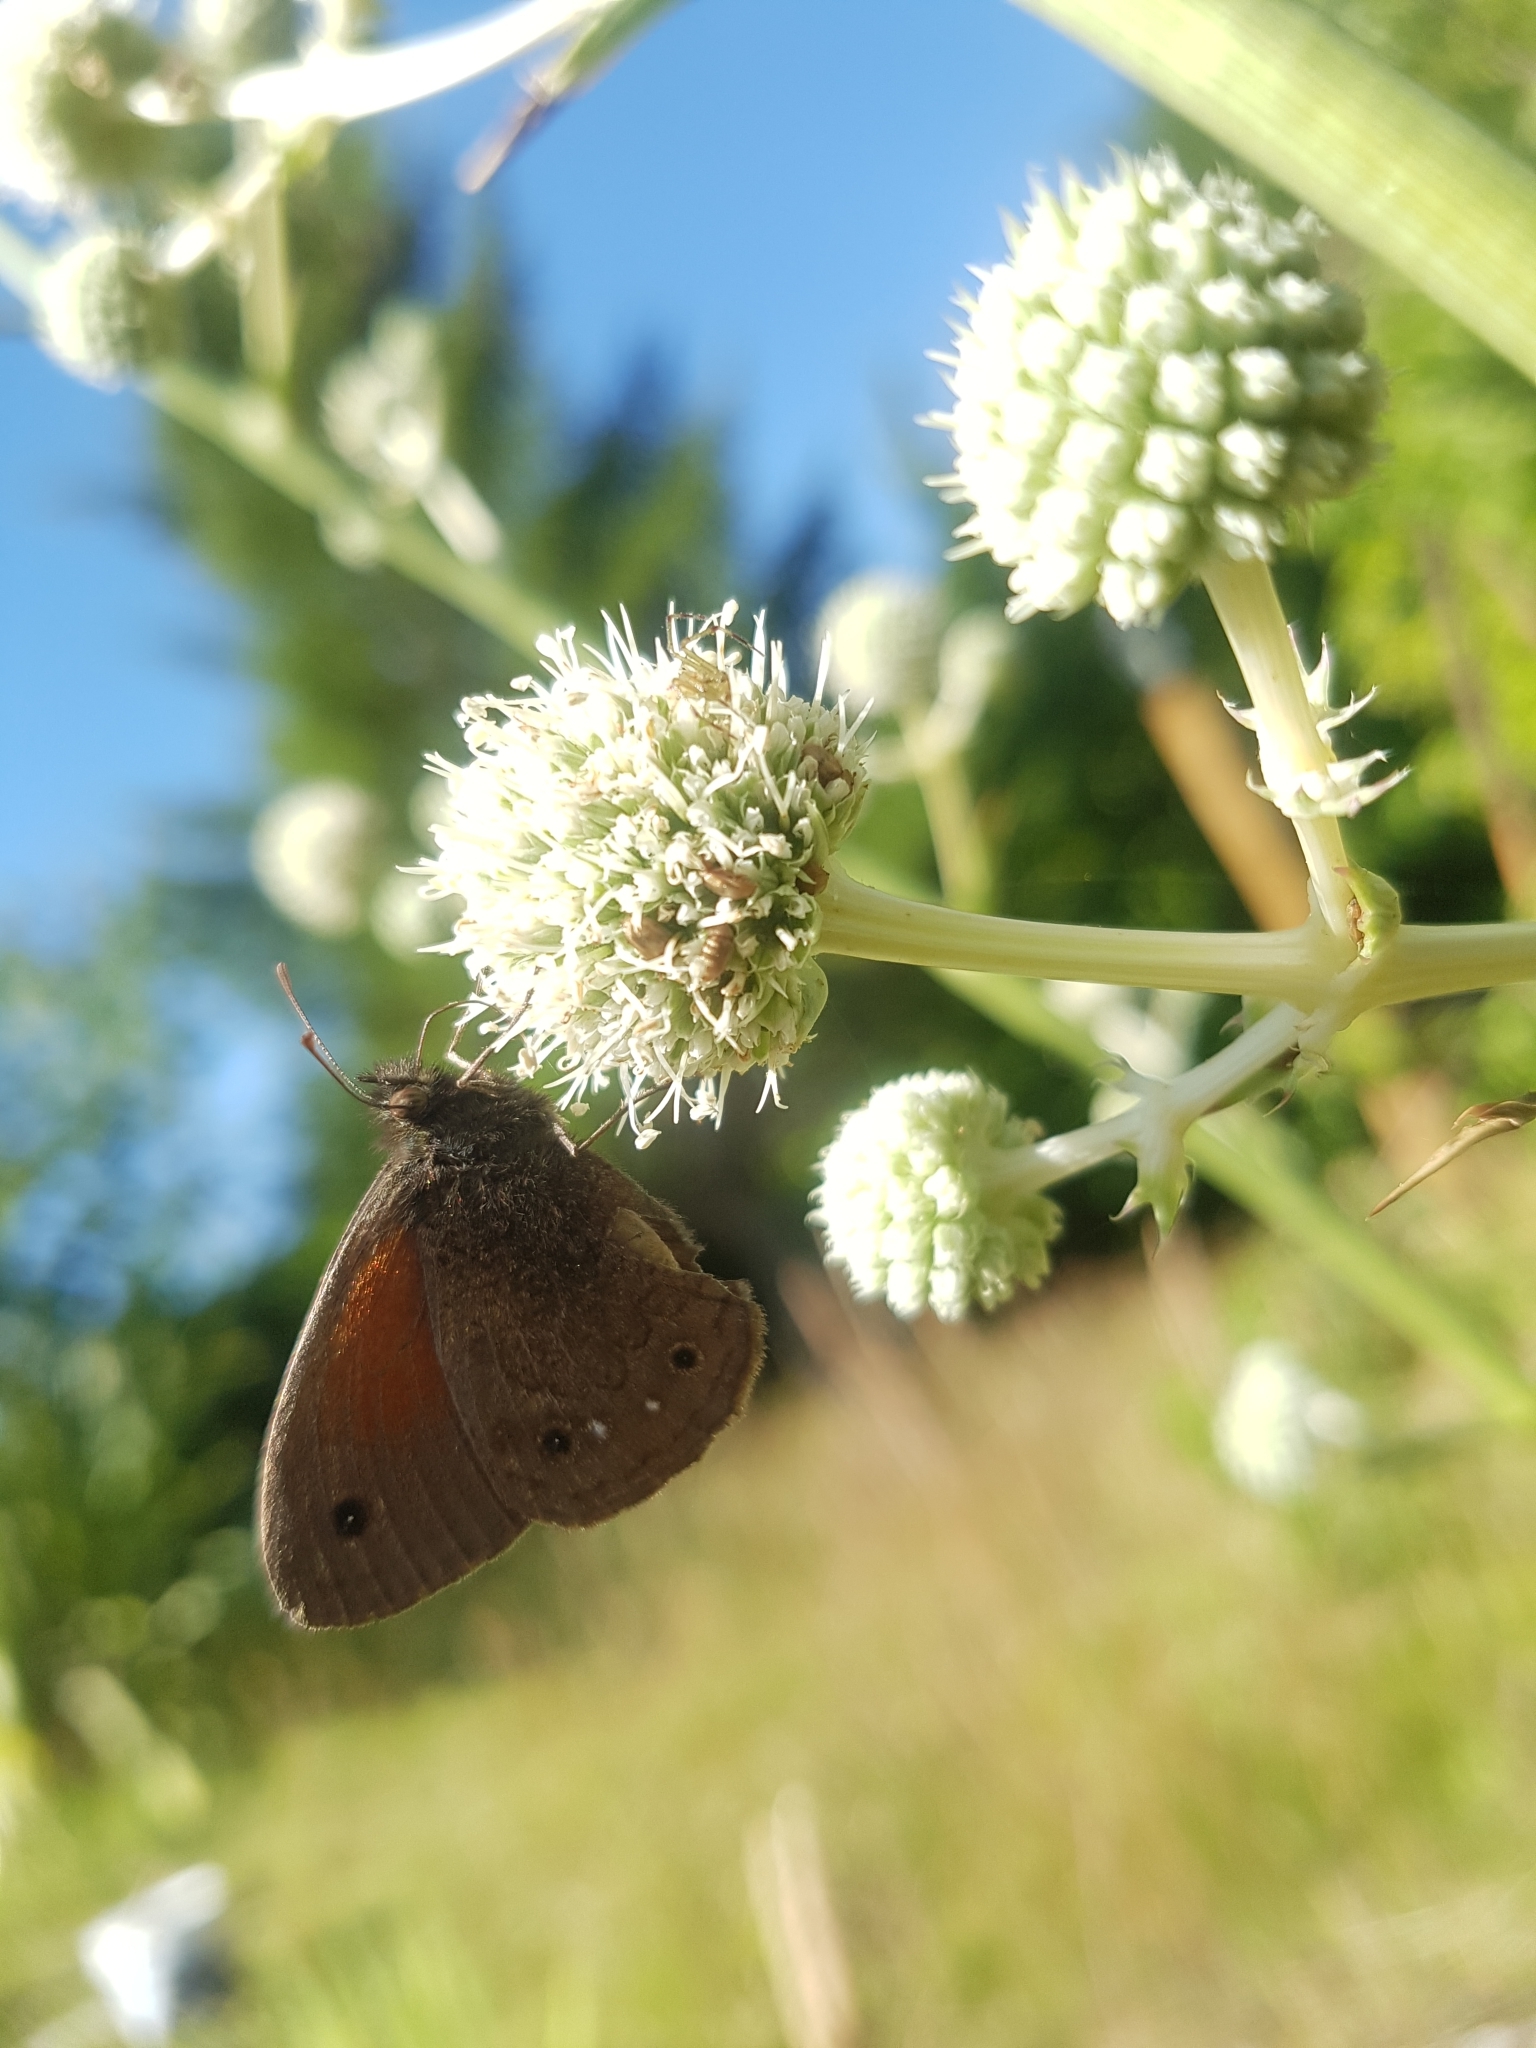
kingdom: Animalia
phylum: Arthropoda
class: Insecta
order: Lepidoptera
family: Nymphalidae
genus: Cosmosatyrus
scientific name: Cosmosatyrus leptoneuroides
